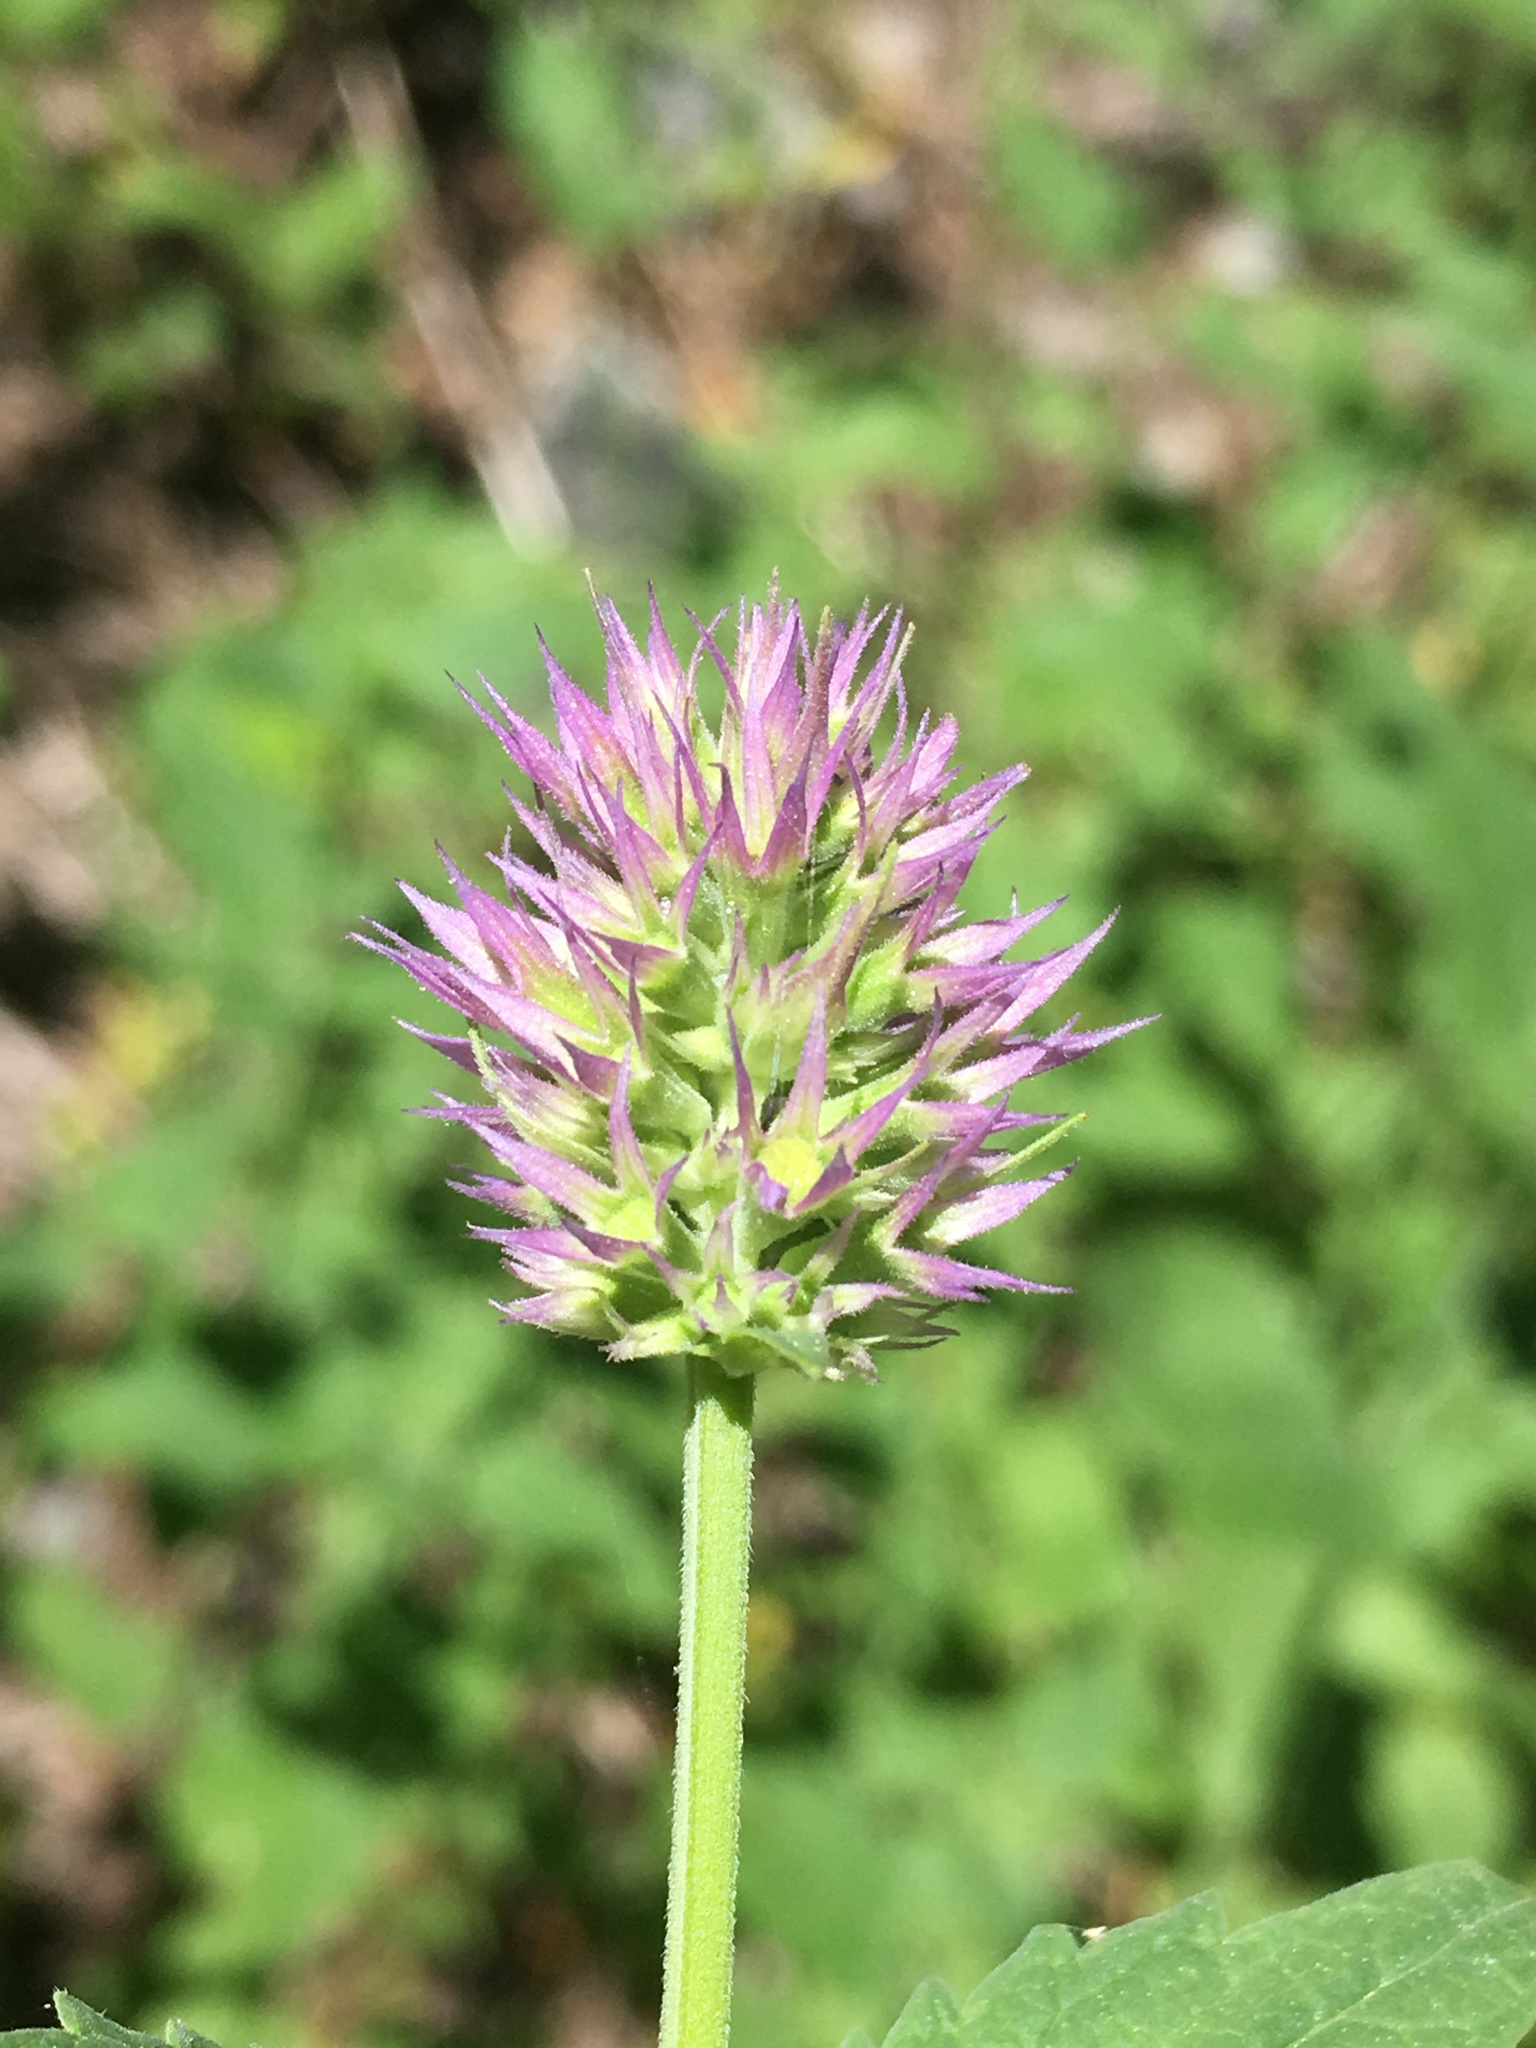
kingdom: Plantae
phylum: Tracheophyta
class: Magnoliopsida
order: Lamiales
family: Lamiaceae
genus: Agastache
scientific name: Agastache urticifolia
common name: Horsemint giant hyssop
